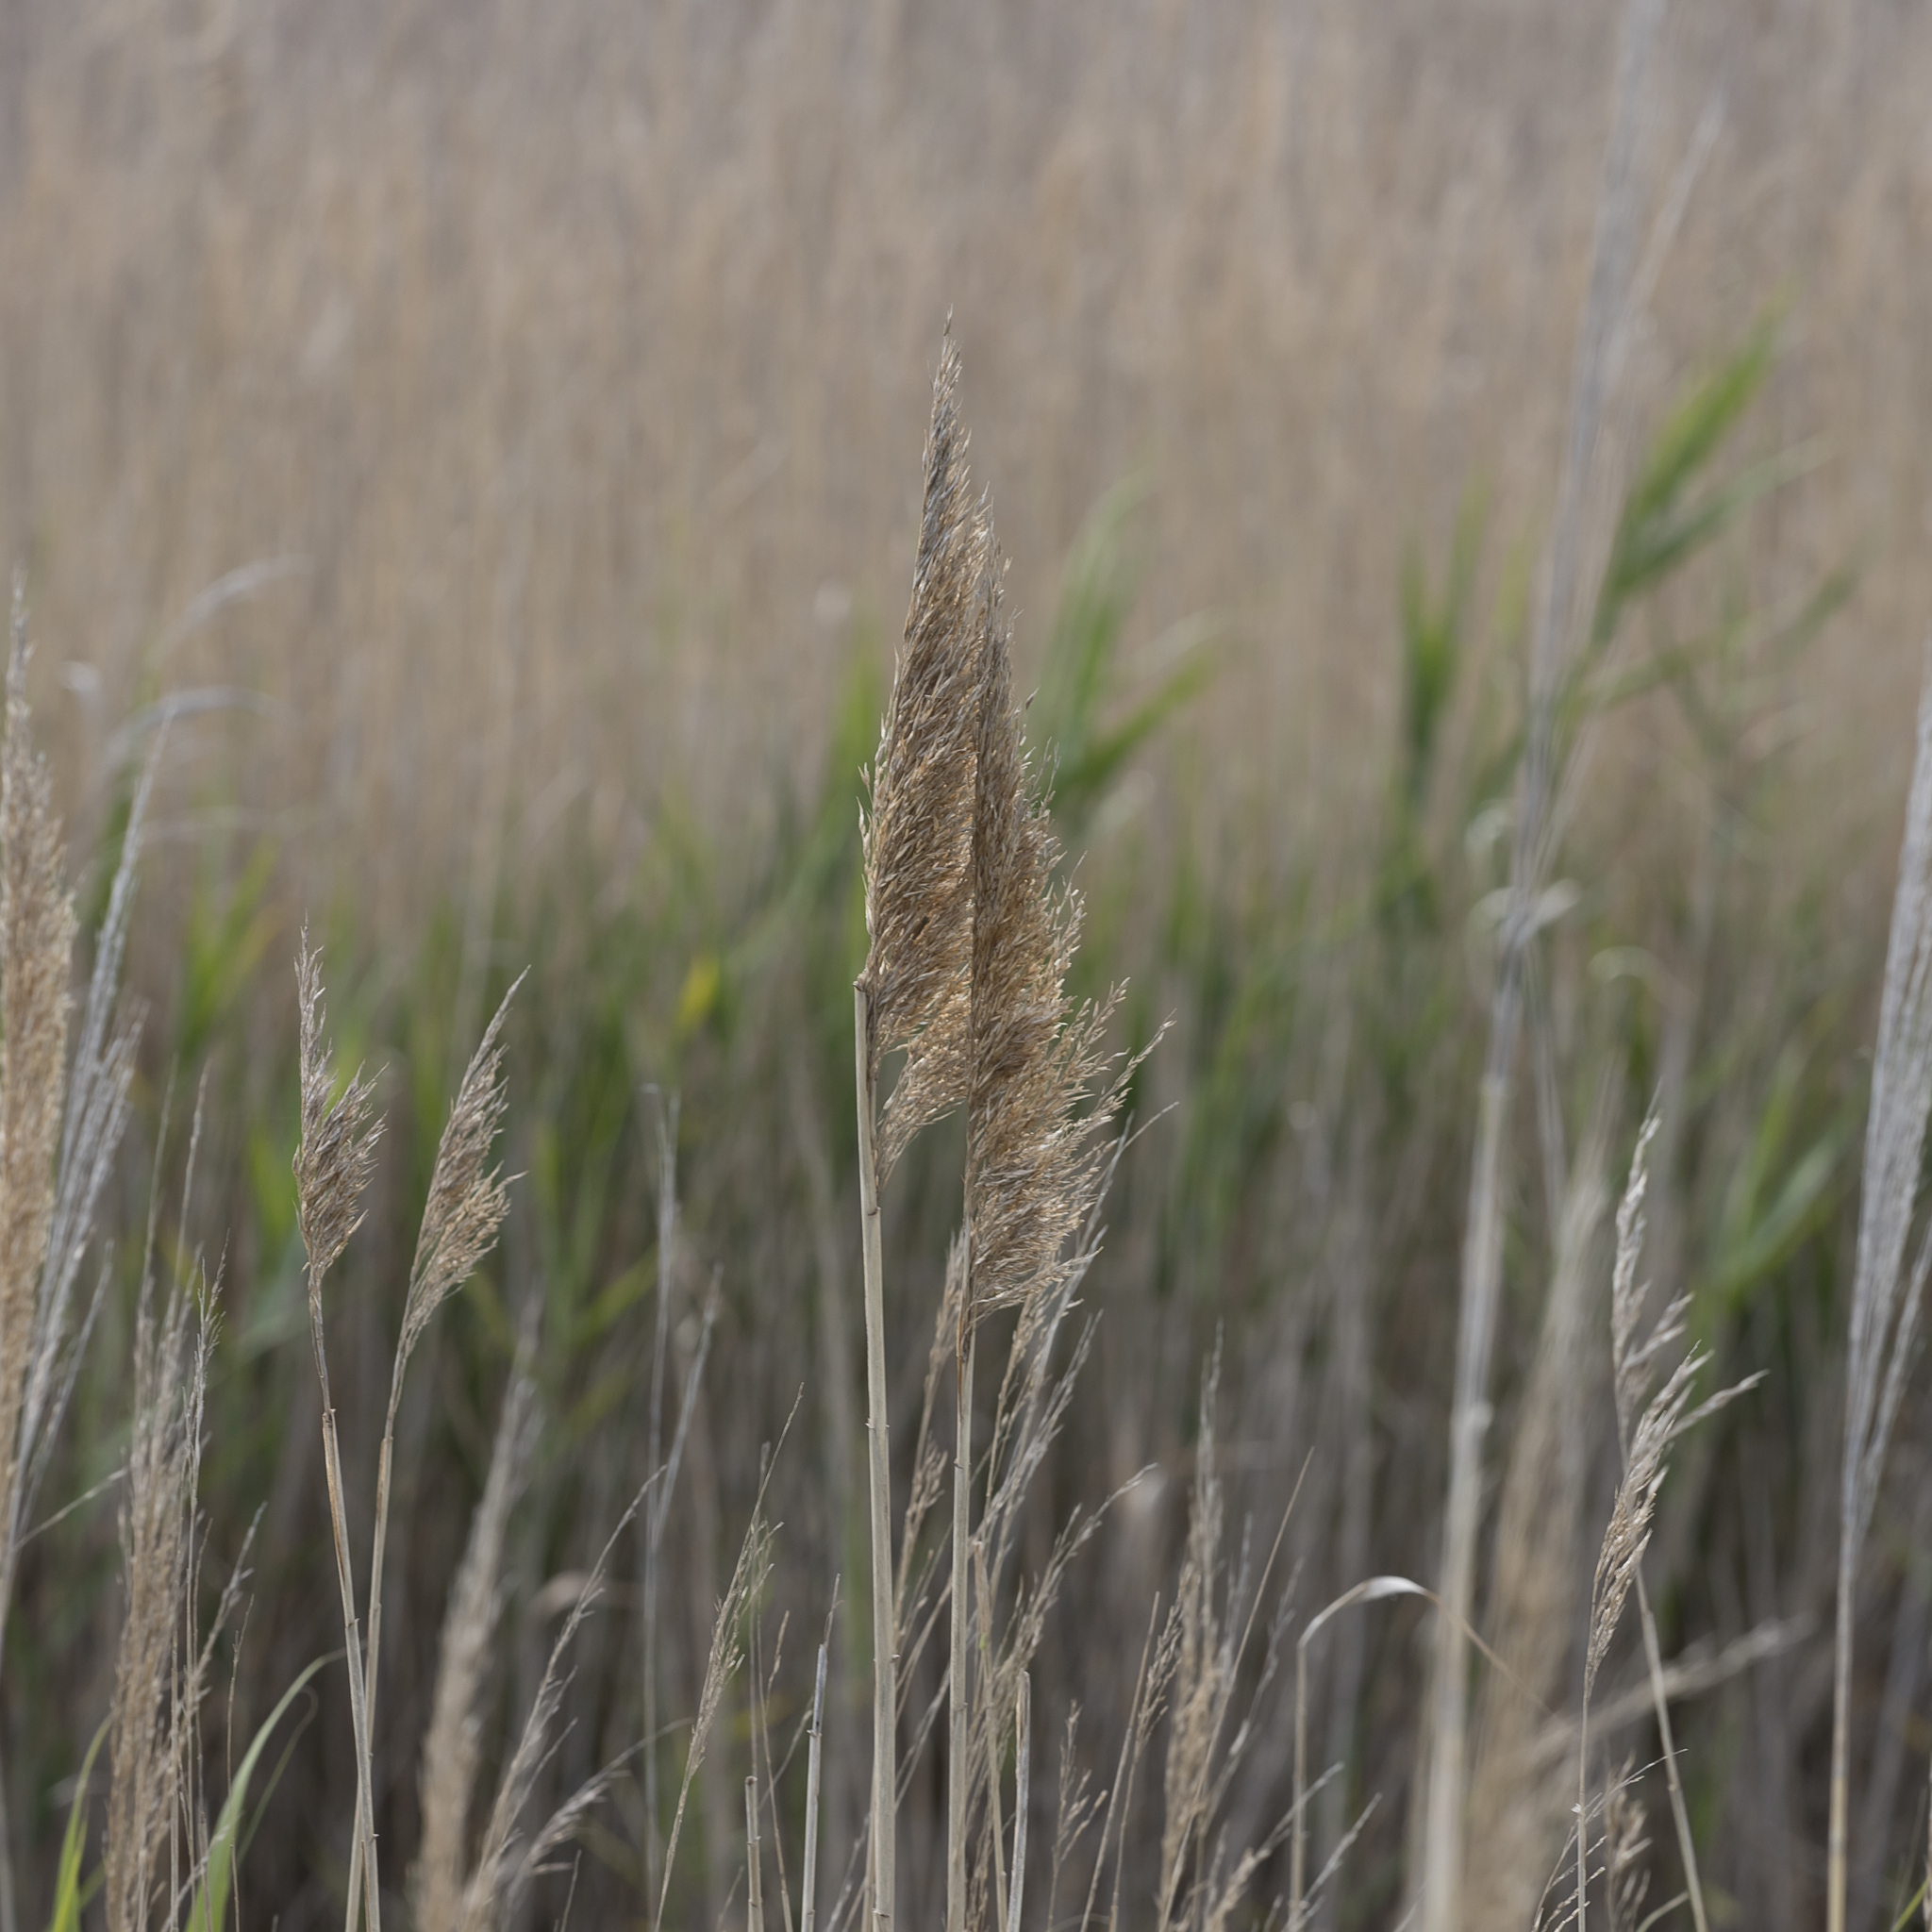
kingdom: Plantae
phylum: Tracheophyta
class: Liliopsida
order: Poales
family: Poaceae
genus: Phragmites
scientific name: Phragmites australis
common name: Common reed
